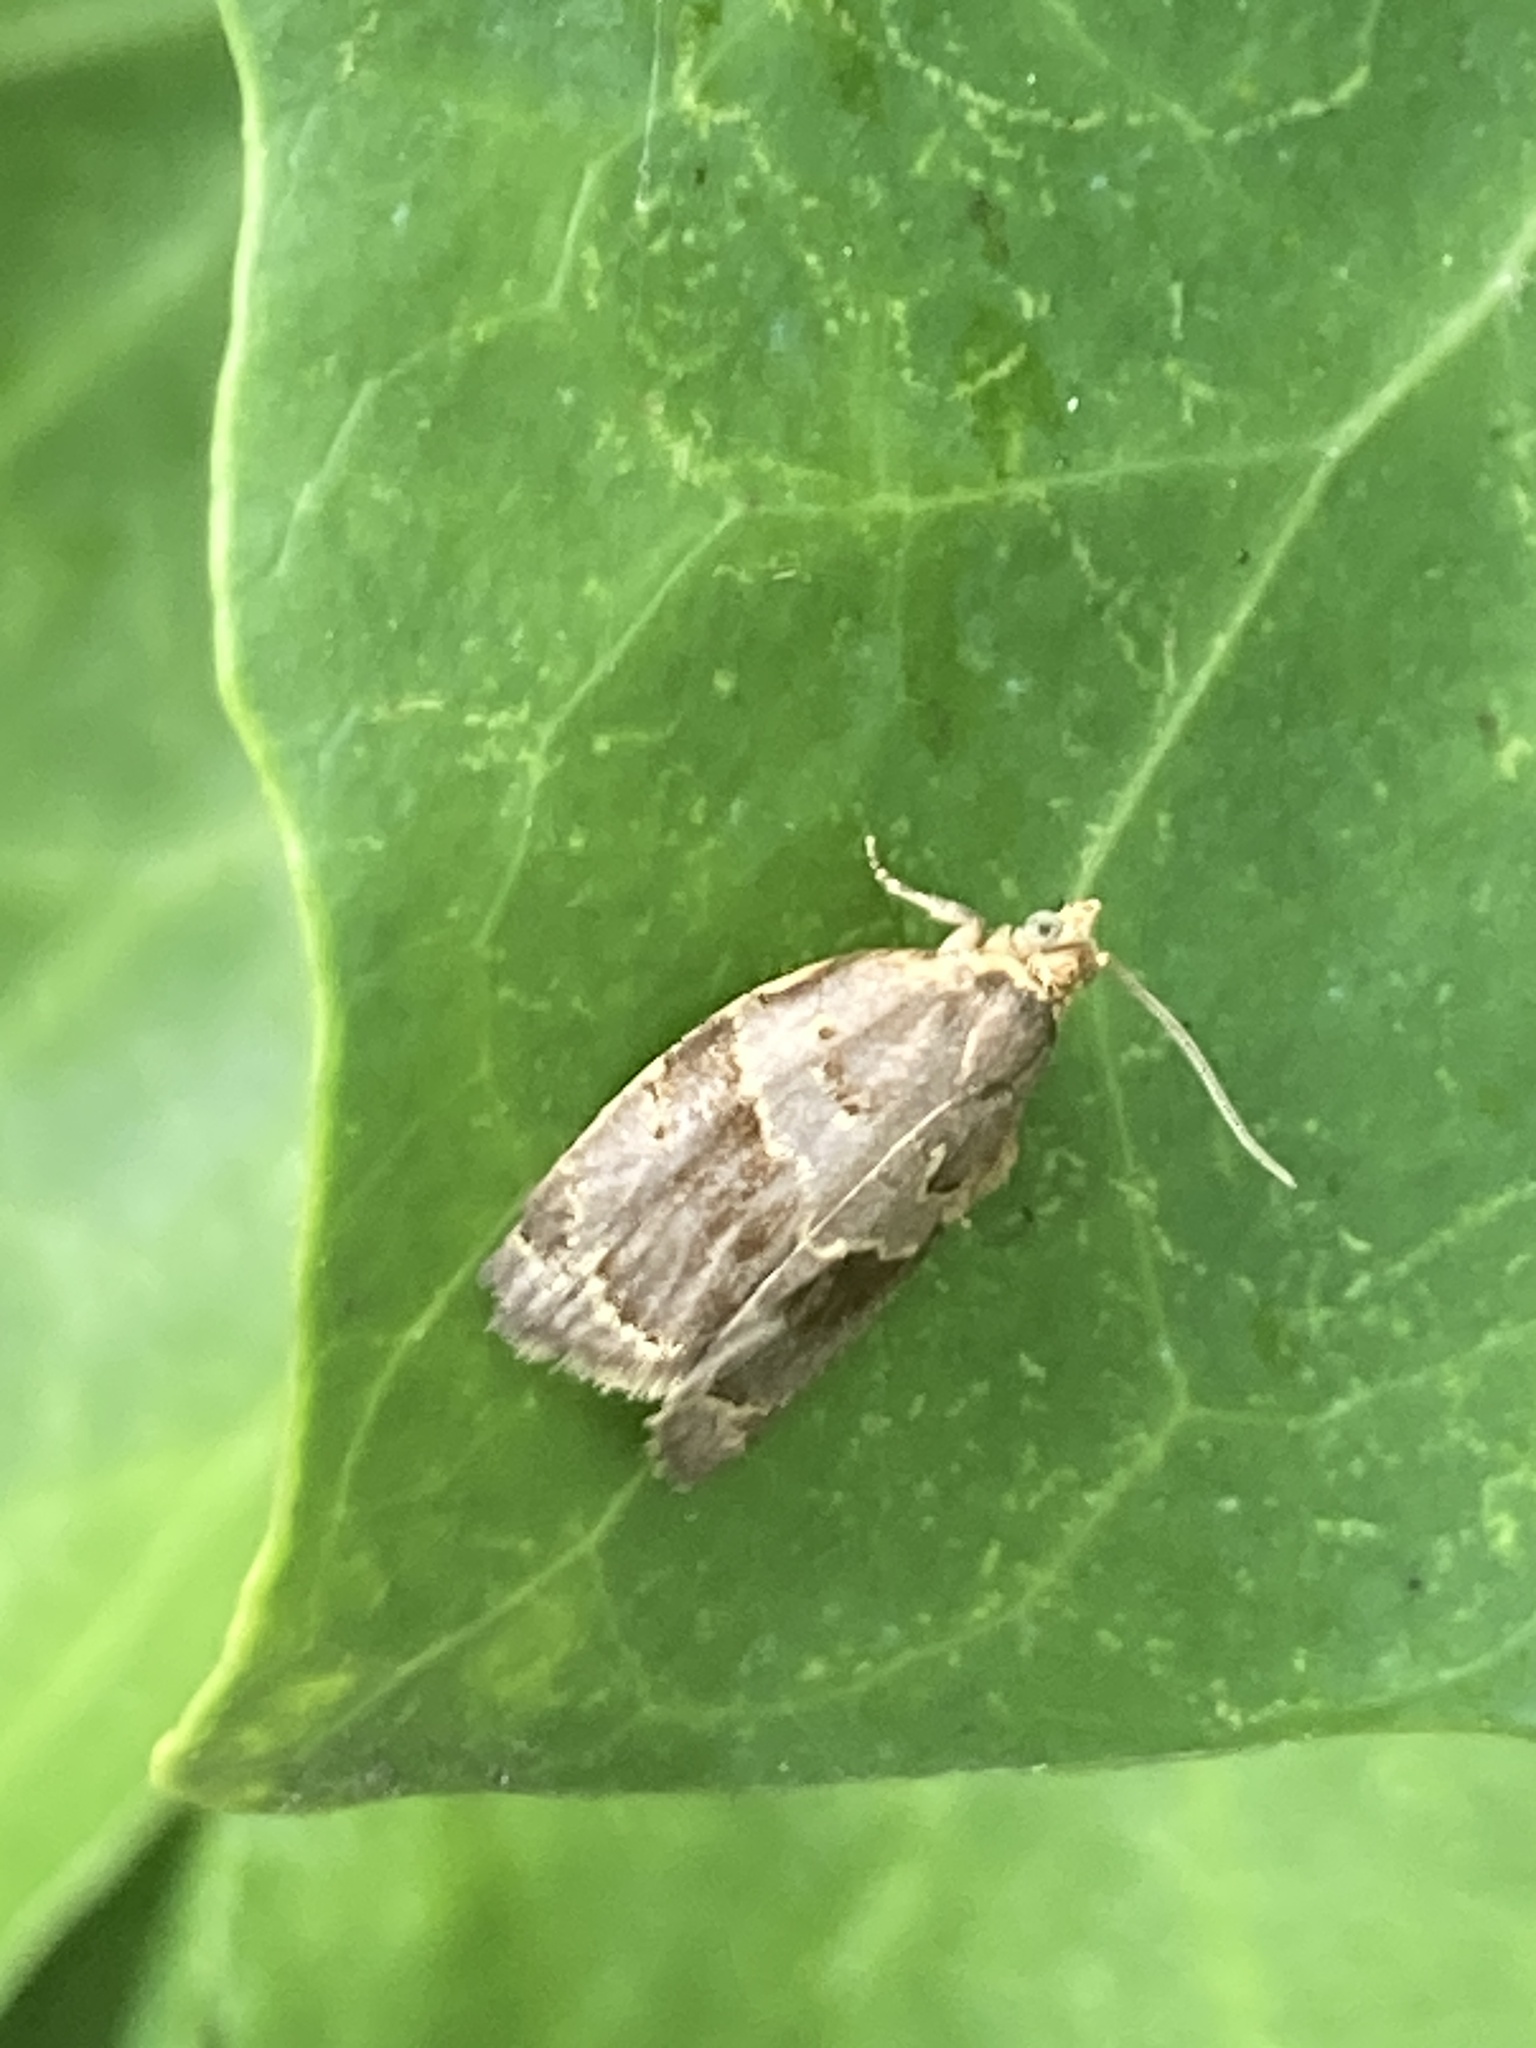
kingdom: Animalia
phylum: Arthropoda
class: Insecta
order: Lepidoptera
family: Tortricidae
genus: Clepsis
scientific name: Clepsis dumicolana
